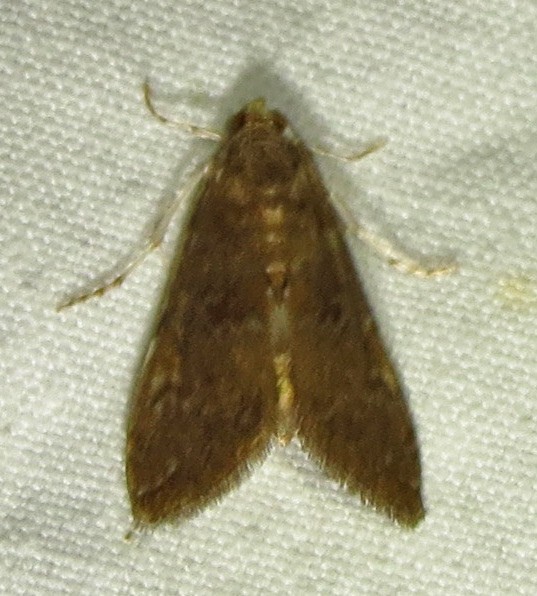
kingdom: Animalia
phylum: Arthropoda
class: Insecta
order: Lepidoptera
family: Crambidae
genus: Elophila
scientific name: Elophila gyralis
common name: Waterlily borer moth
